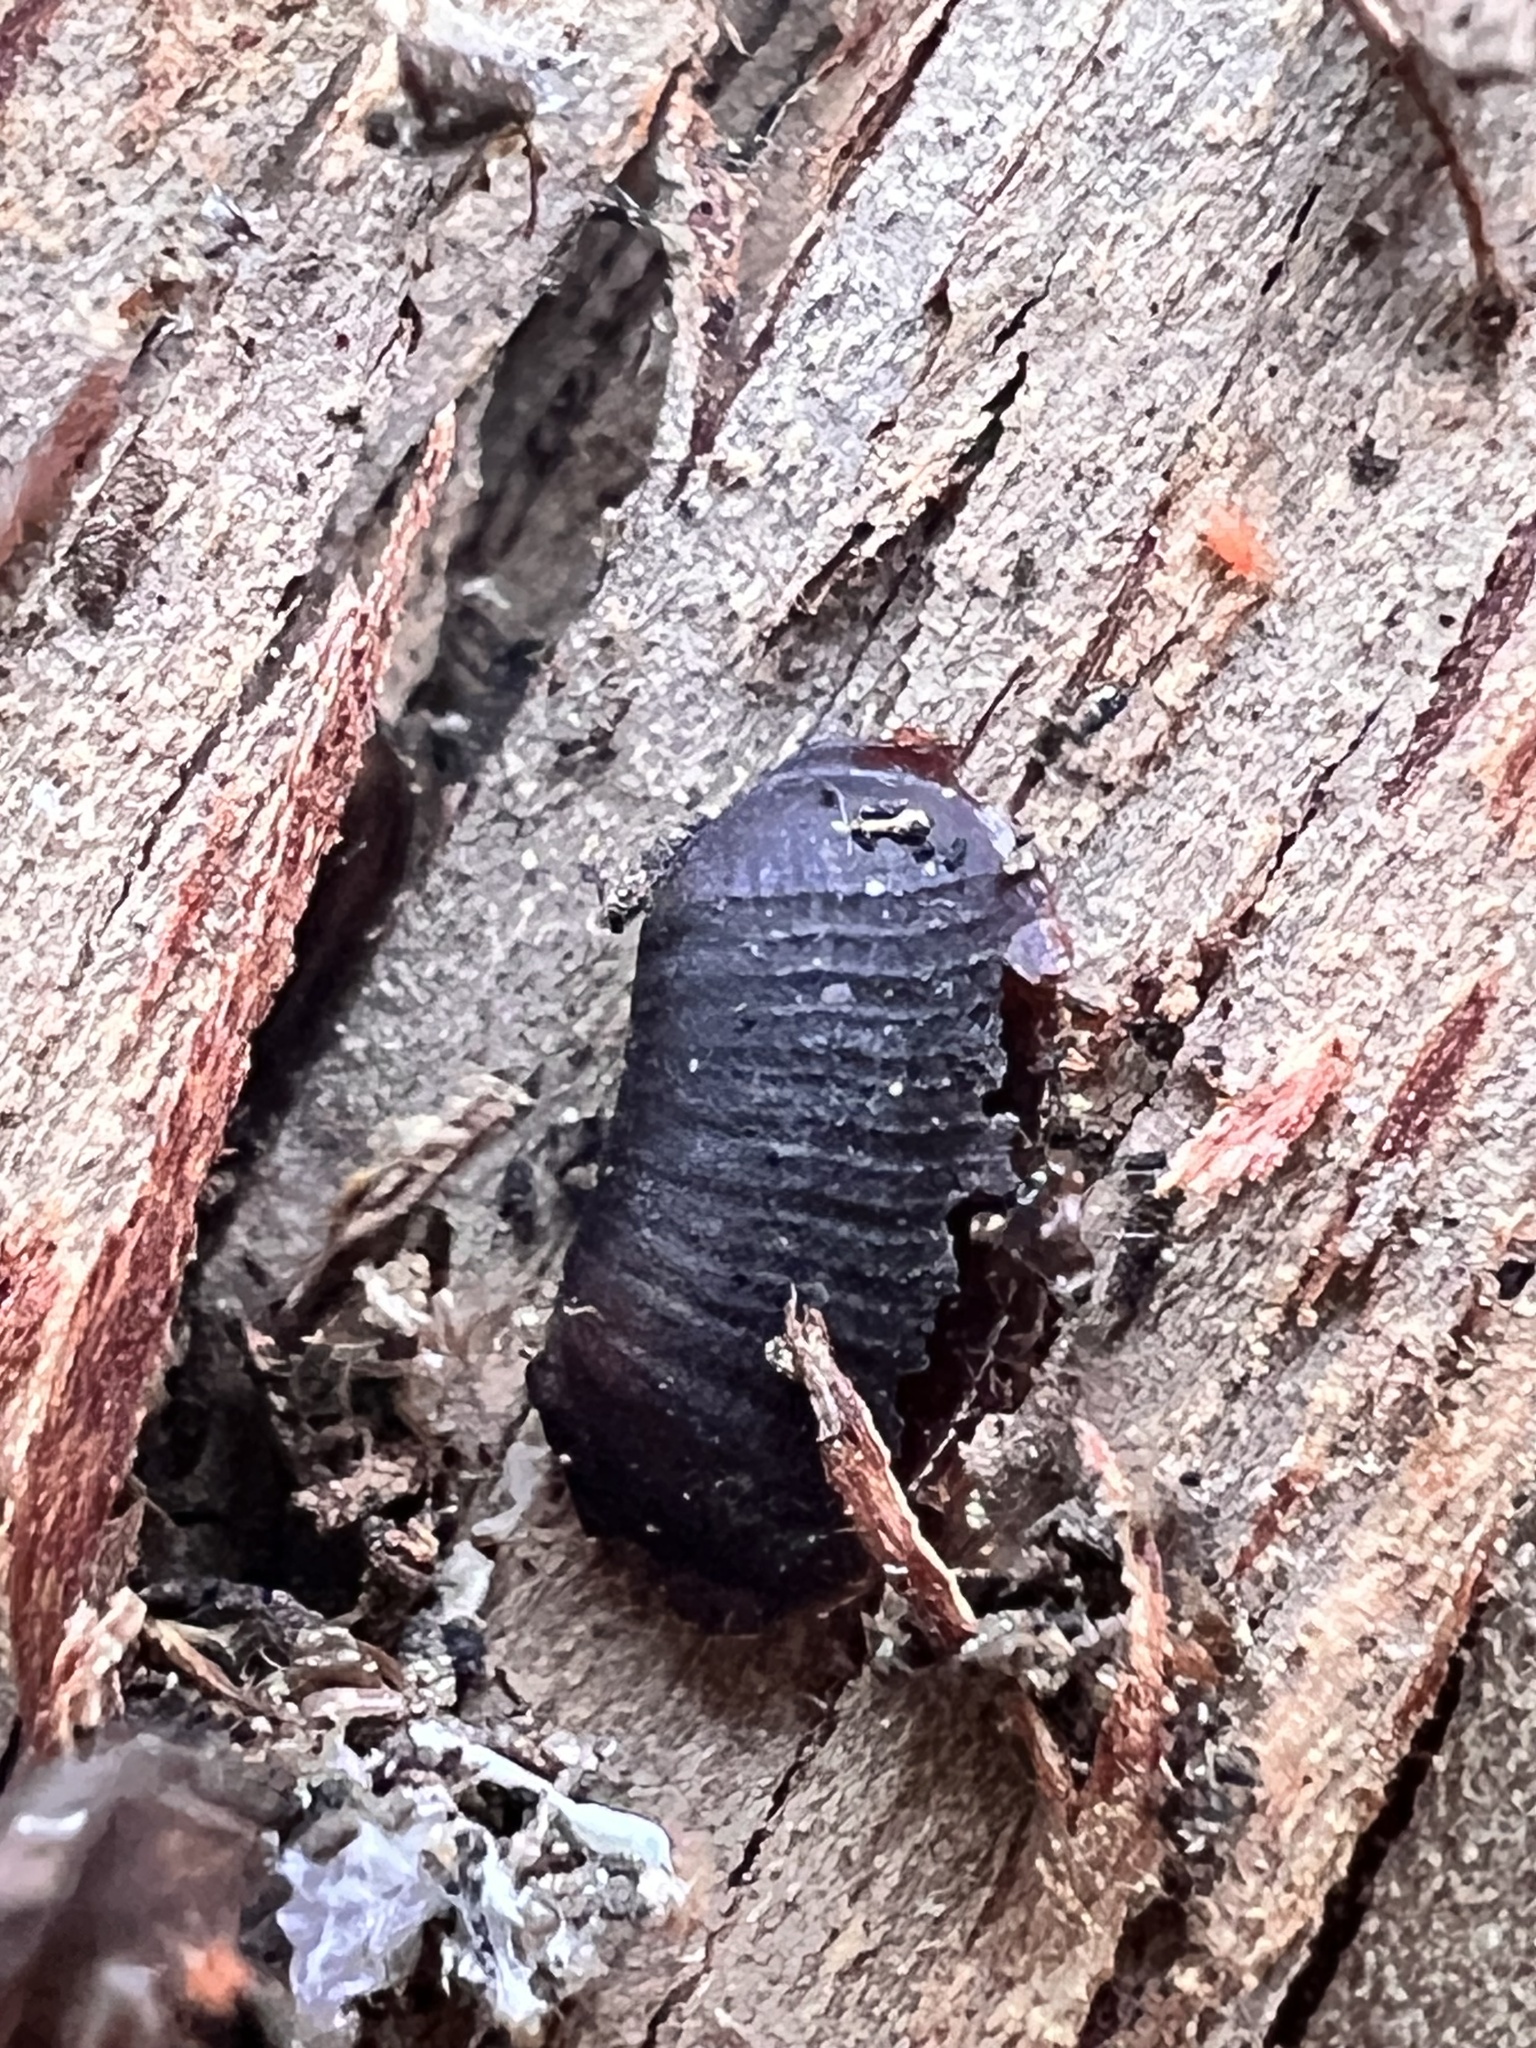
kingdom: Fungi
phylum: Basidiomycota
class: Agaricomycetes
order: Auriculariales
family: Auriculariaceae
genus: Auricularia
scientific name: Auricularia cornea
